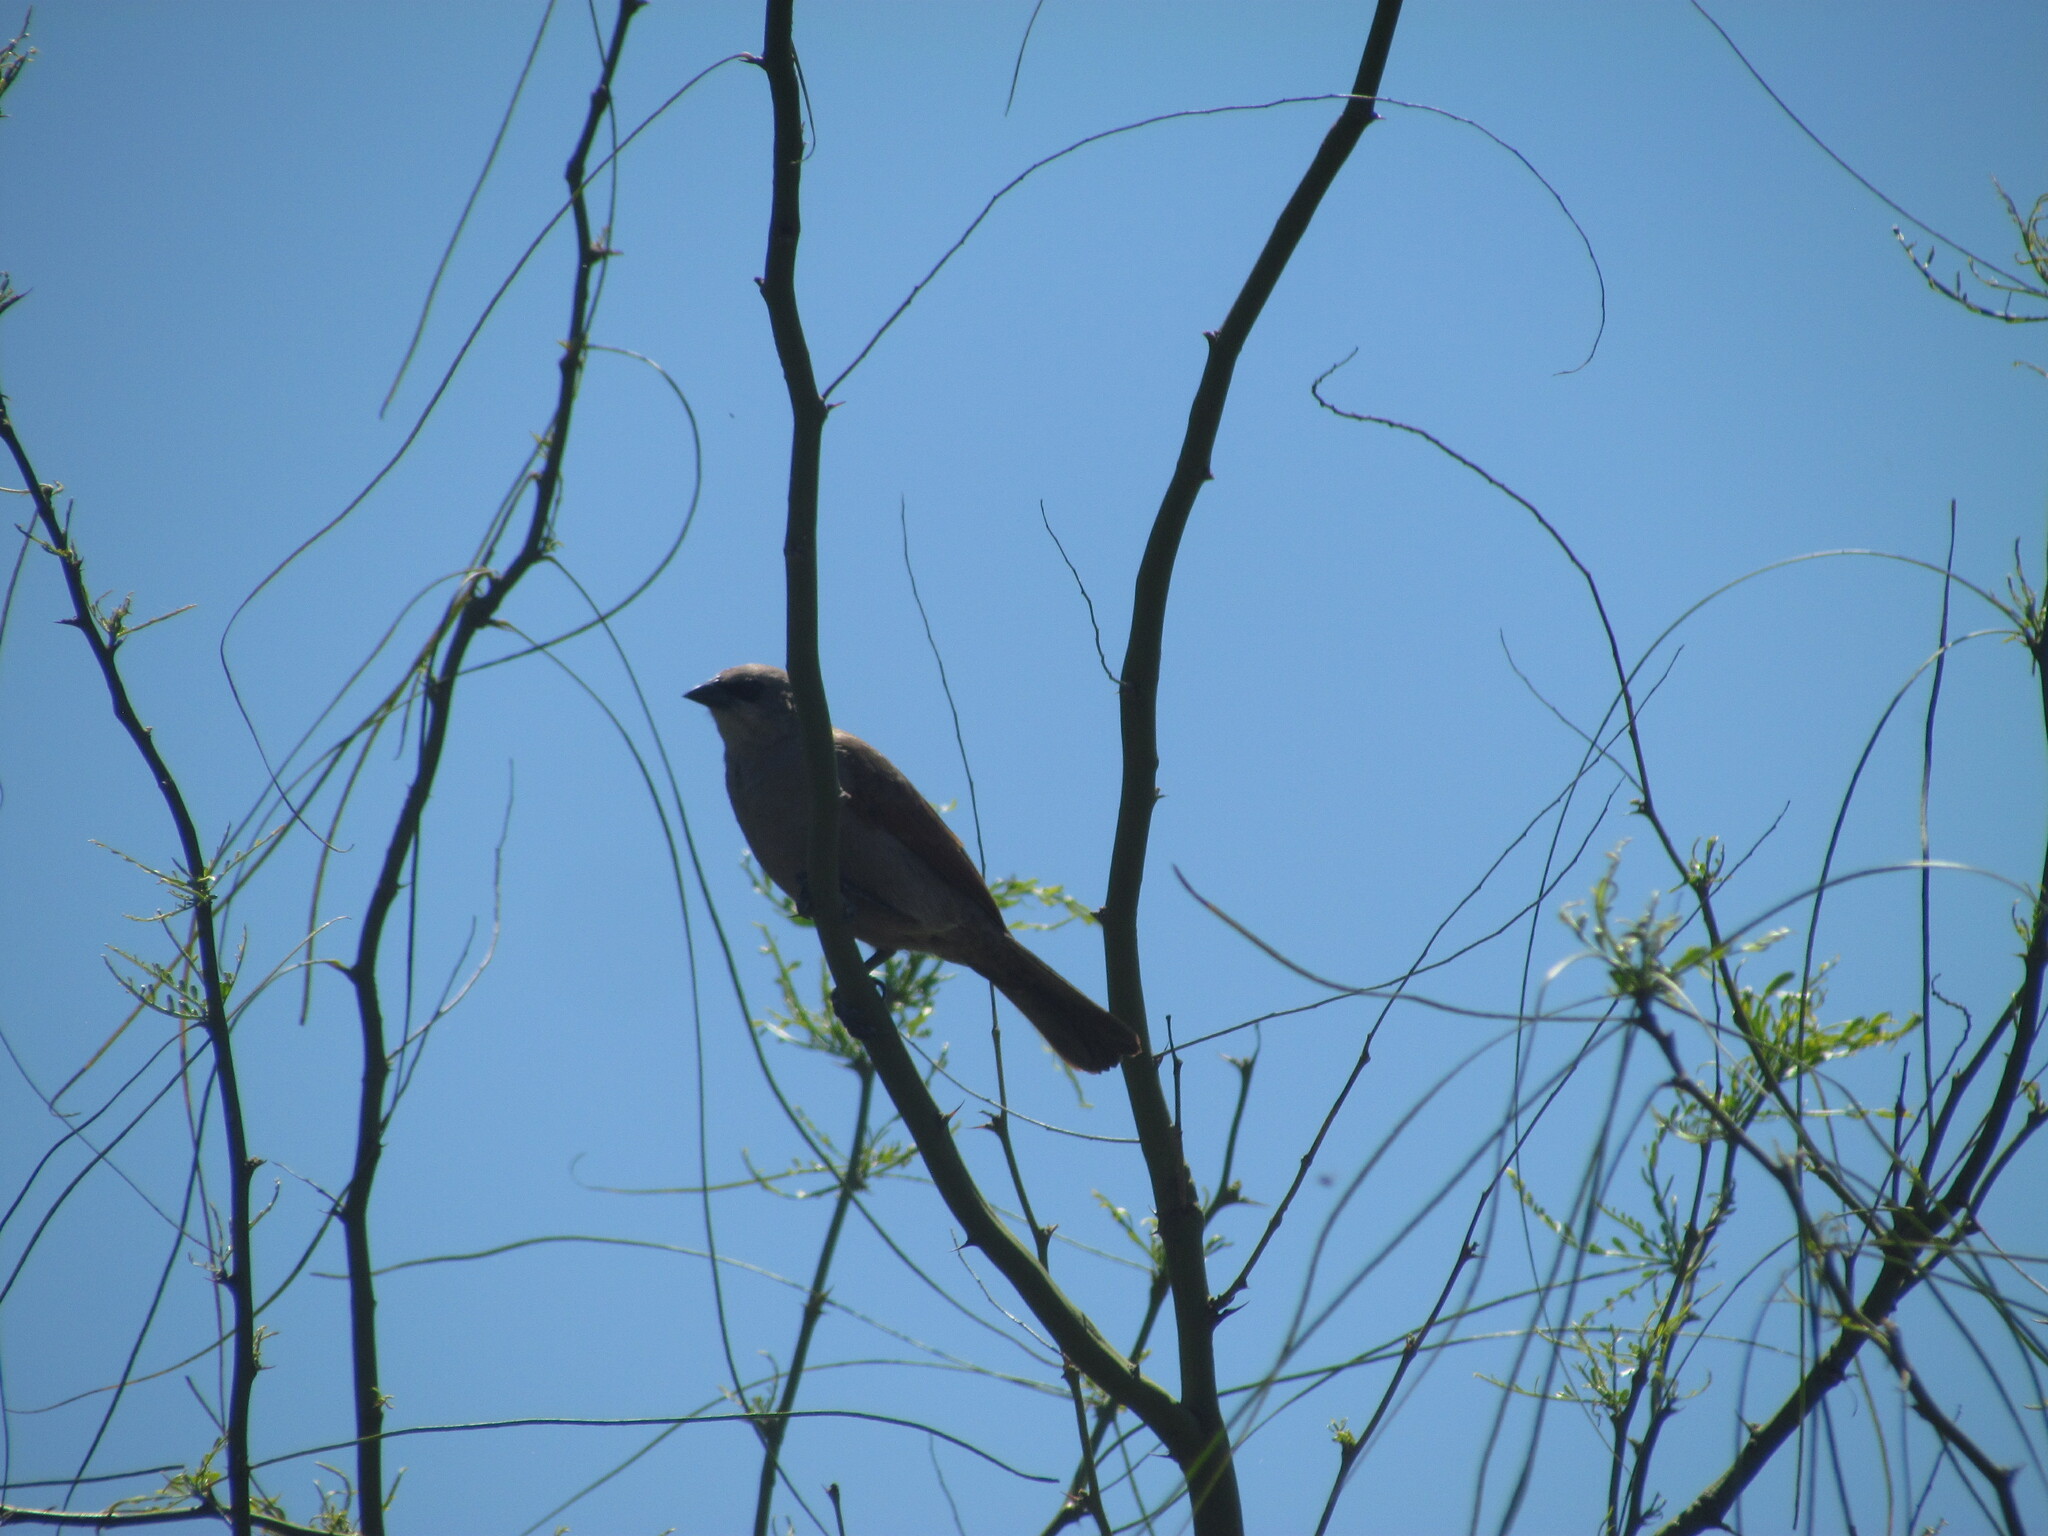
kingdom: Animalia
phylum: Chordata
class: Aves
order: Passeriformes
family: Icteridae
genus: Agelaioides
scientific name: Agelaioides badius
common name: Baywing
